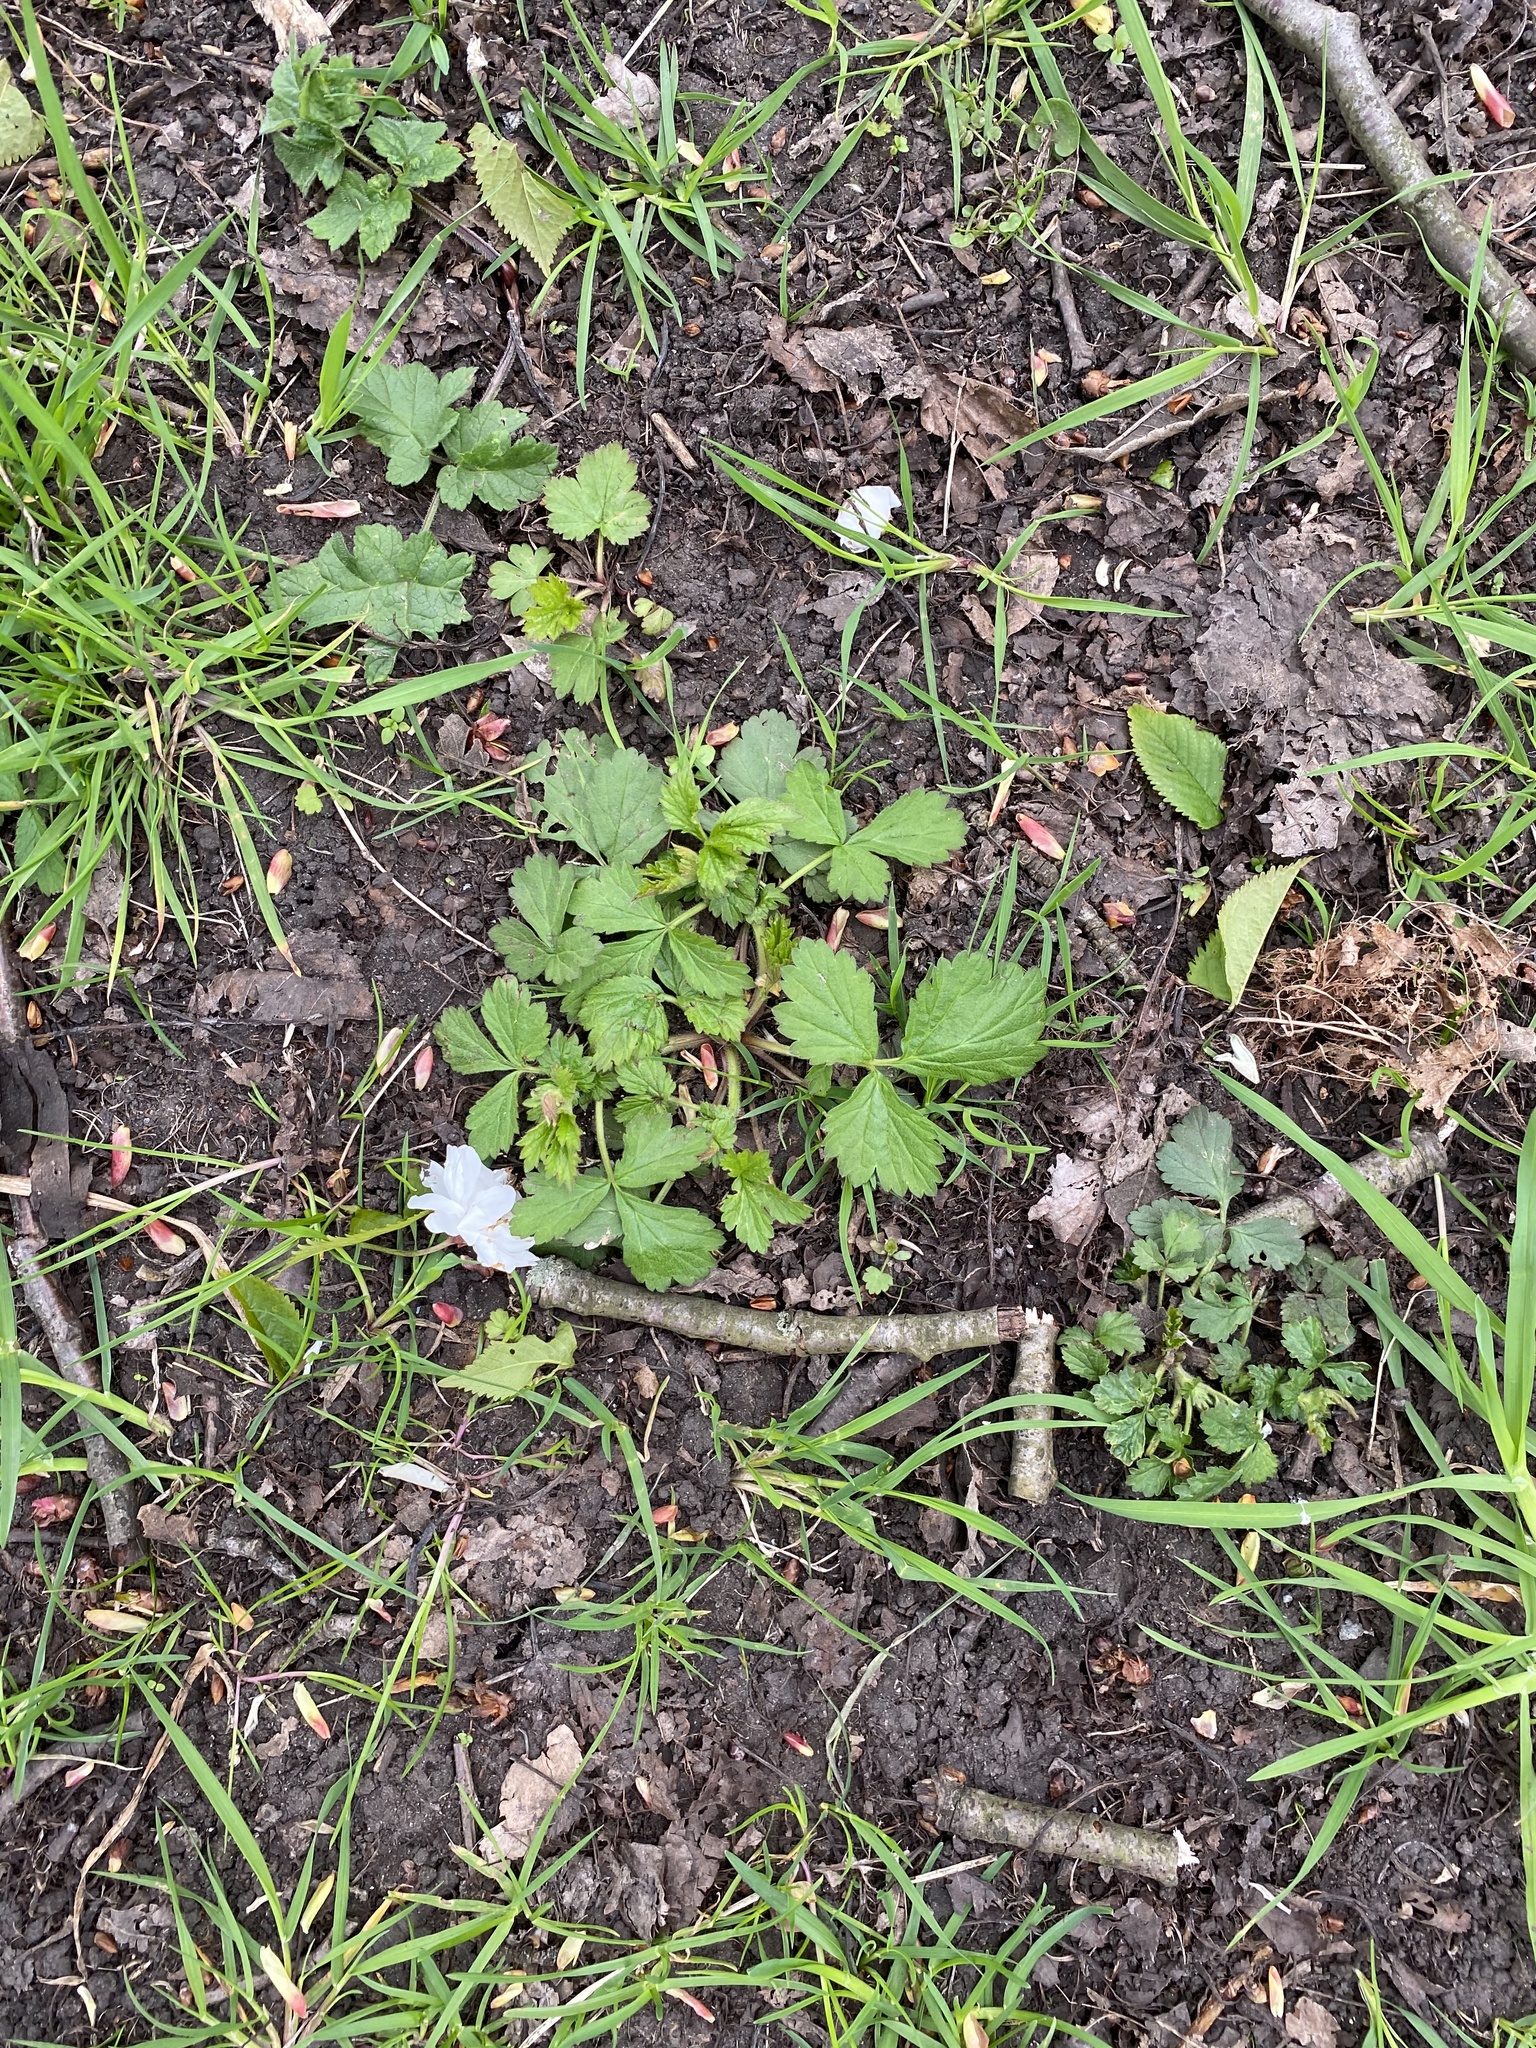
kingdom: Plantae
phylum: Tracheophyta
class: Magnoliopsida
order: Rosales
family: Rosaceae
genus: Geum
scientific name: Geum urbanum
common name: Wood avens
